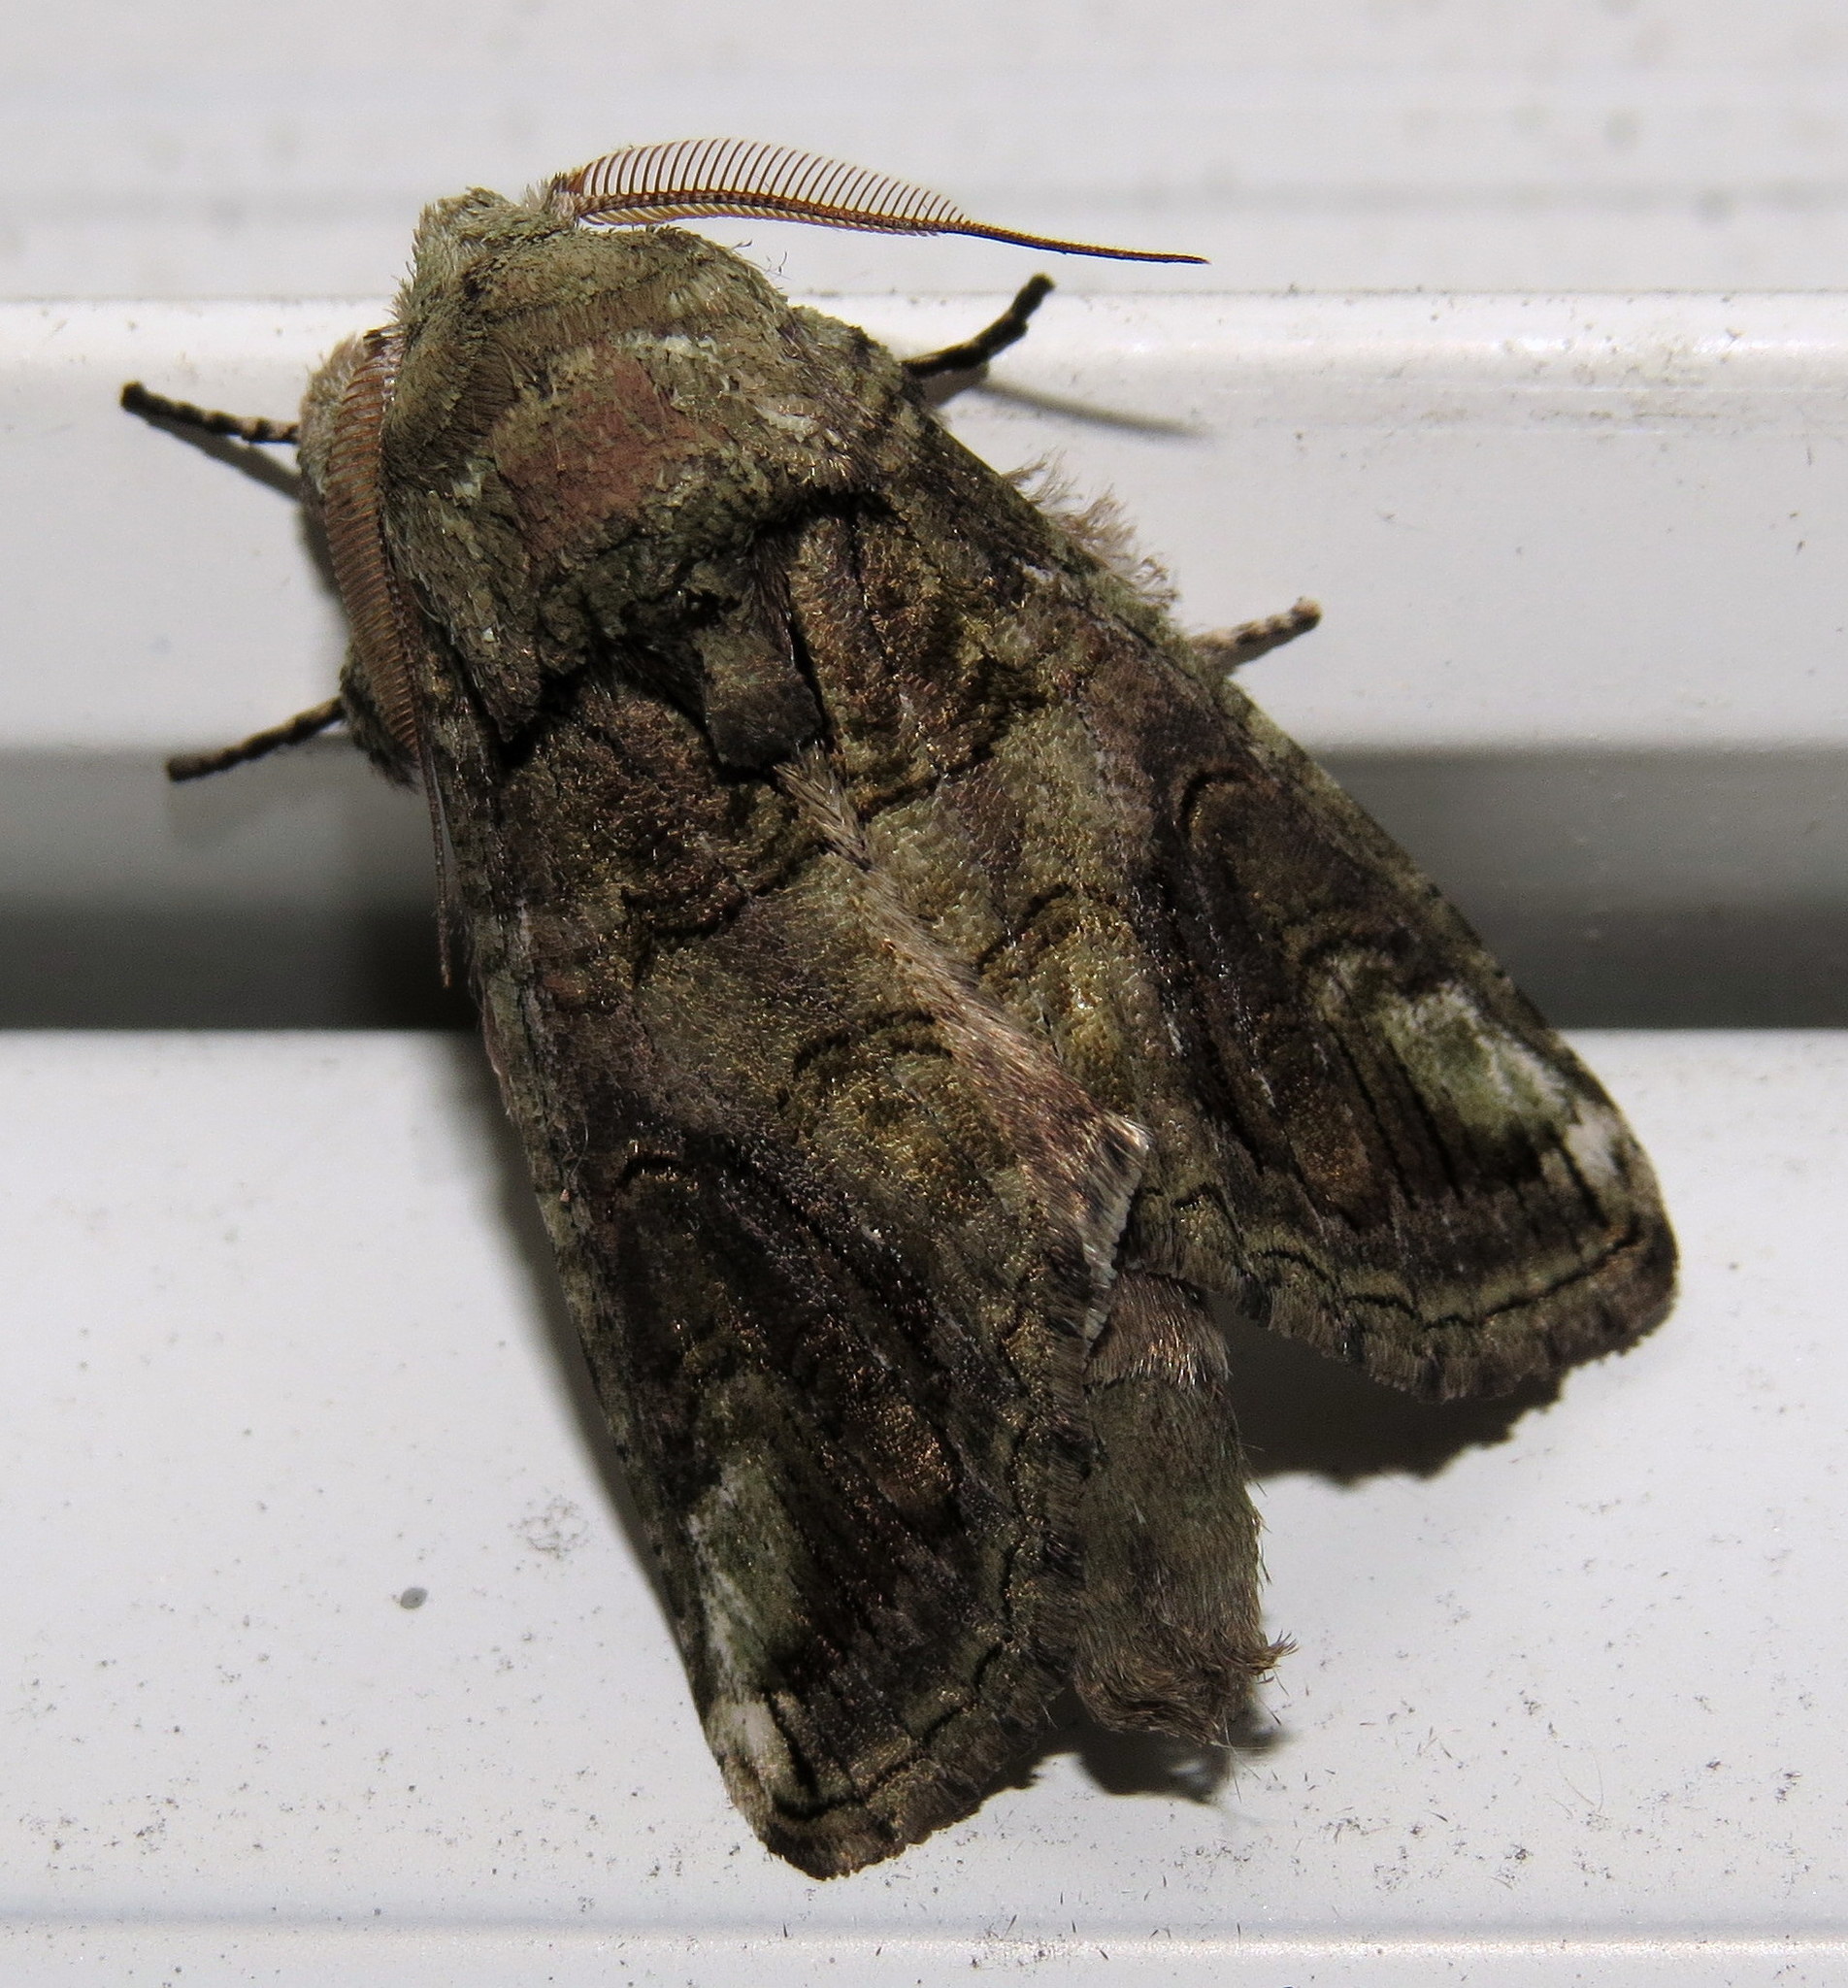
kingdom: Animalia
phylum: Arthropoda
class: Insecta
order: Lepidoptera
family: Notodontidae
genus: Heterocampa
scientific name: Heterocampa obliqua
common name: Oblique heterocampa
